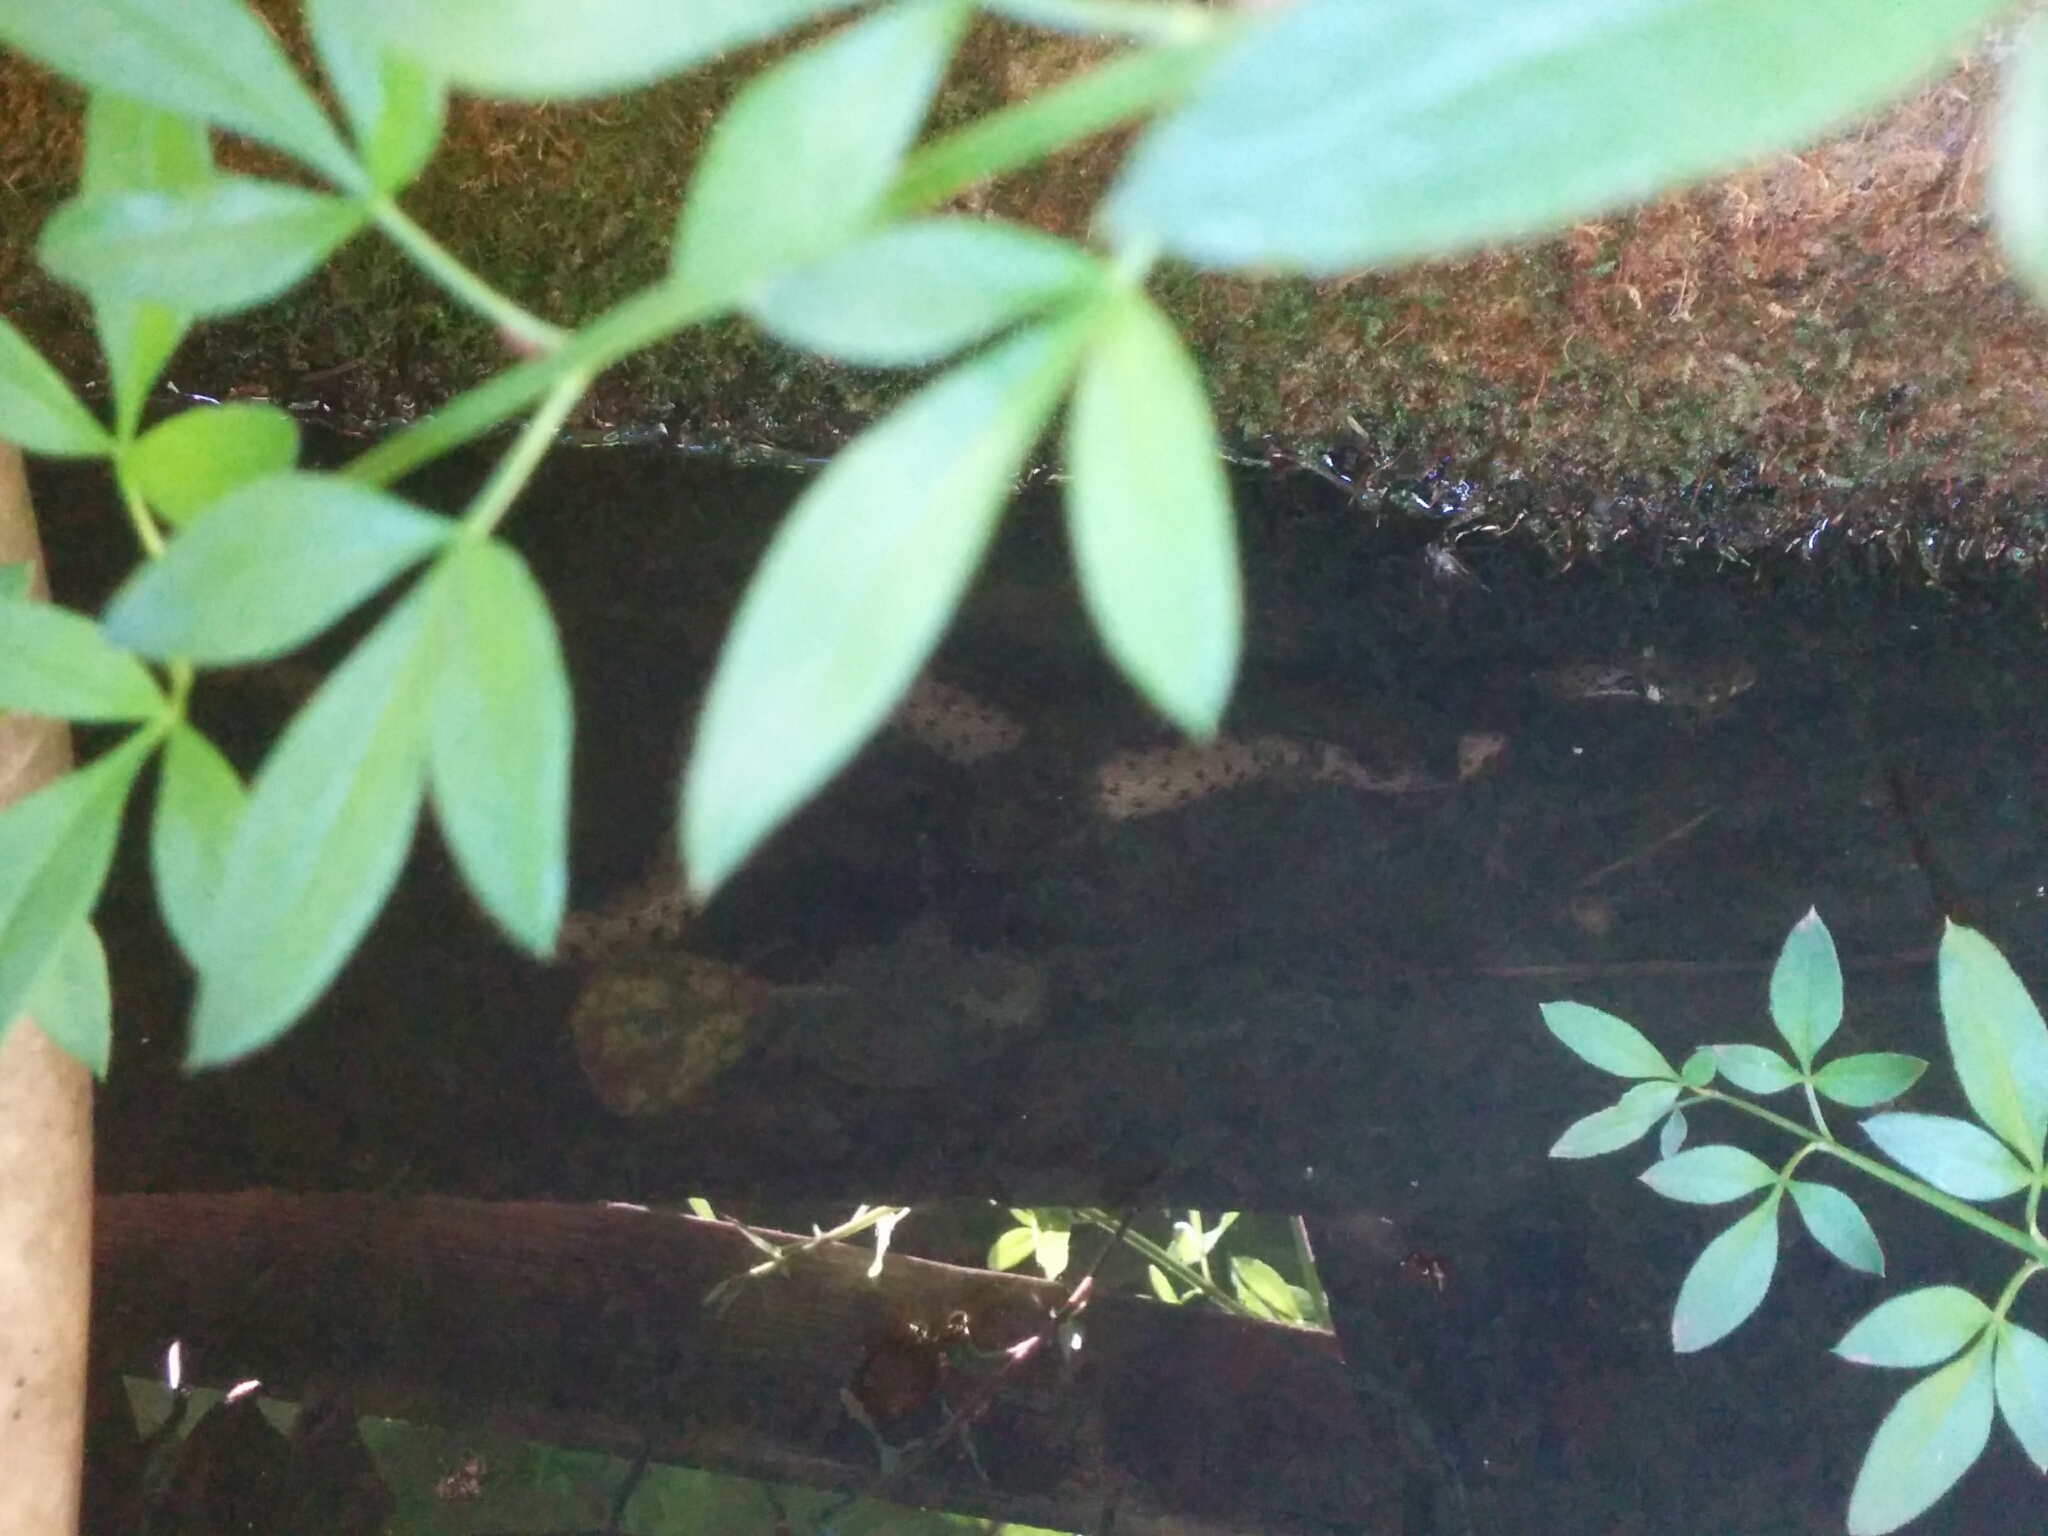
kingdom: Animalia
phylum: Chordata
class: Squamata
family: Colubridae
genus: Natrix
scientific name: Natrix helvetica
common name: Banded grass snake
